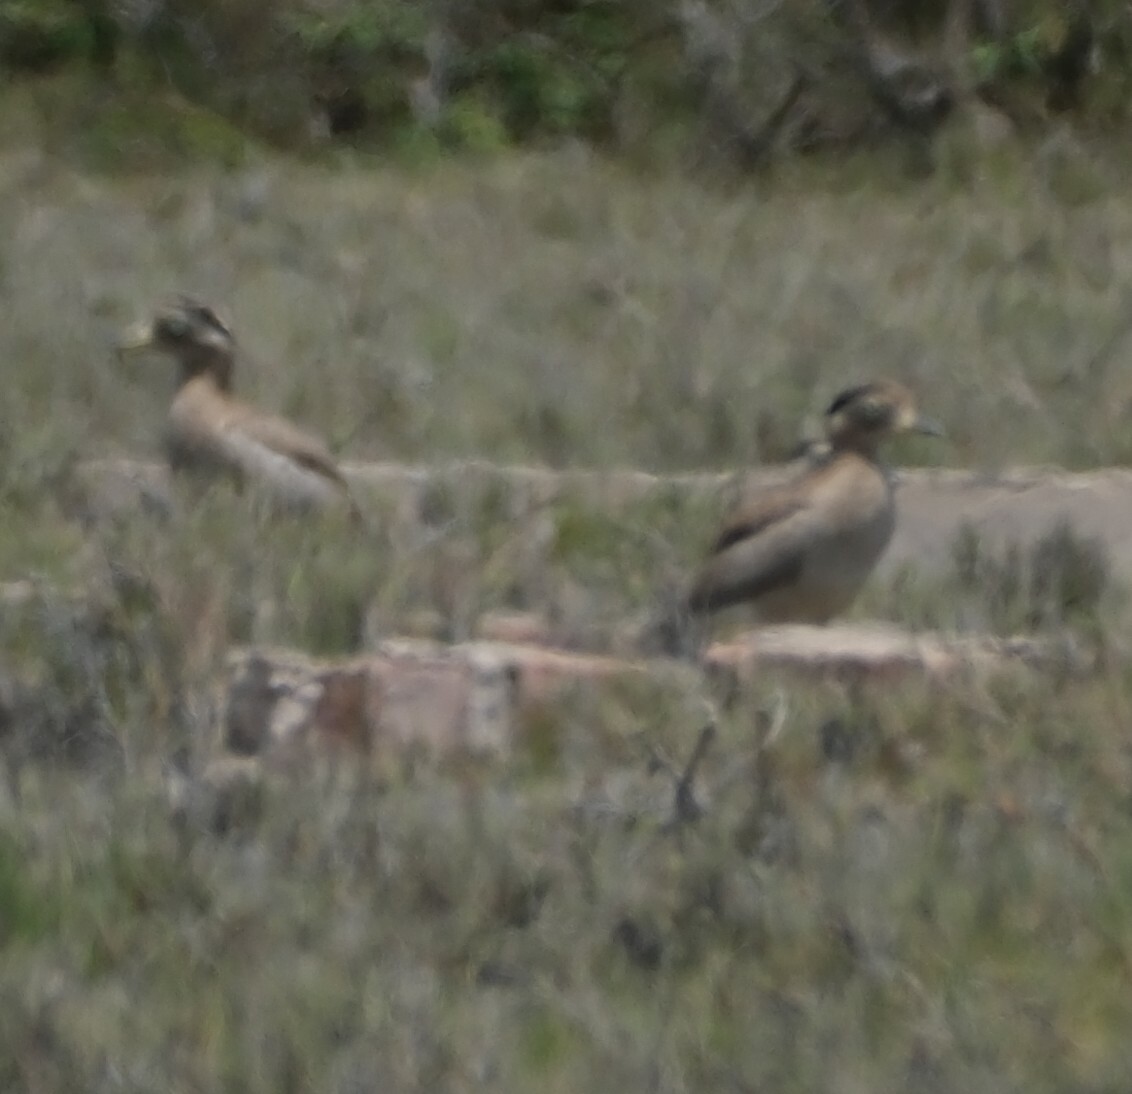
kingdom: Animalia
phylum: Chordata
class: Aves
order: Charadriiformes
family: Burhinidae
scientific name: Burhinidae
